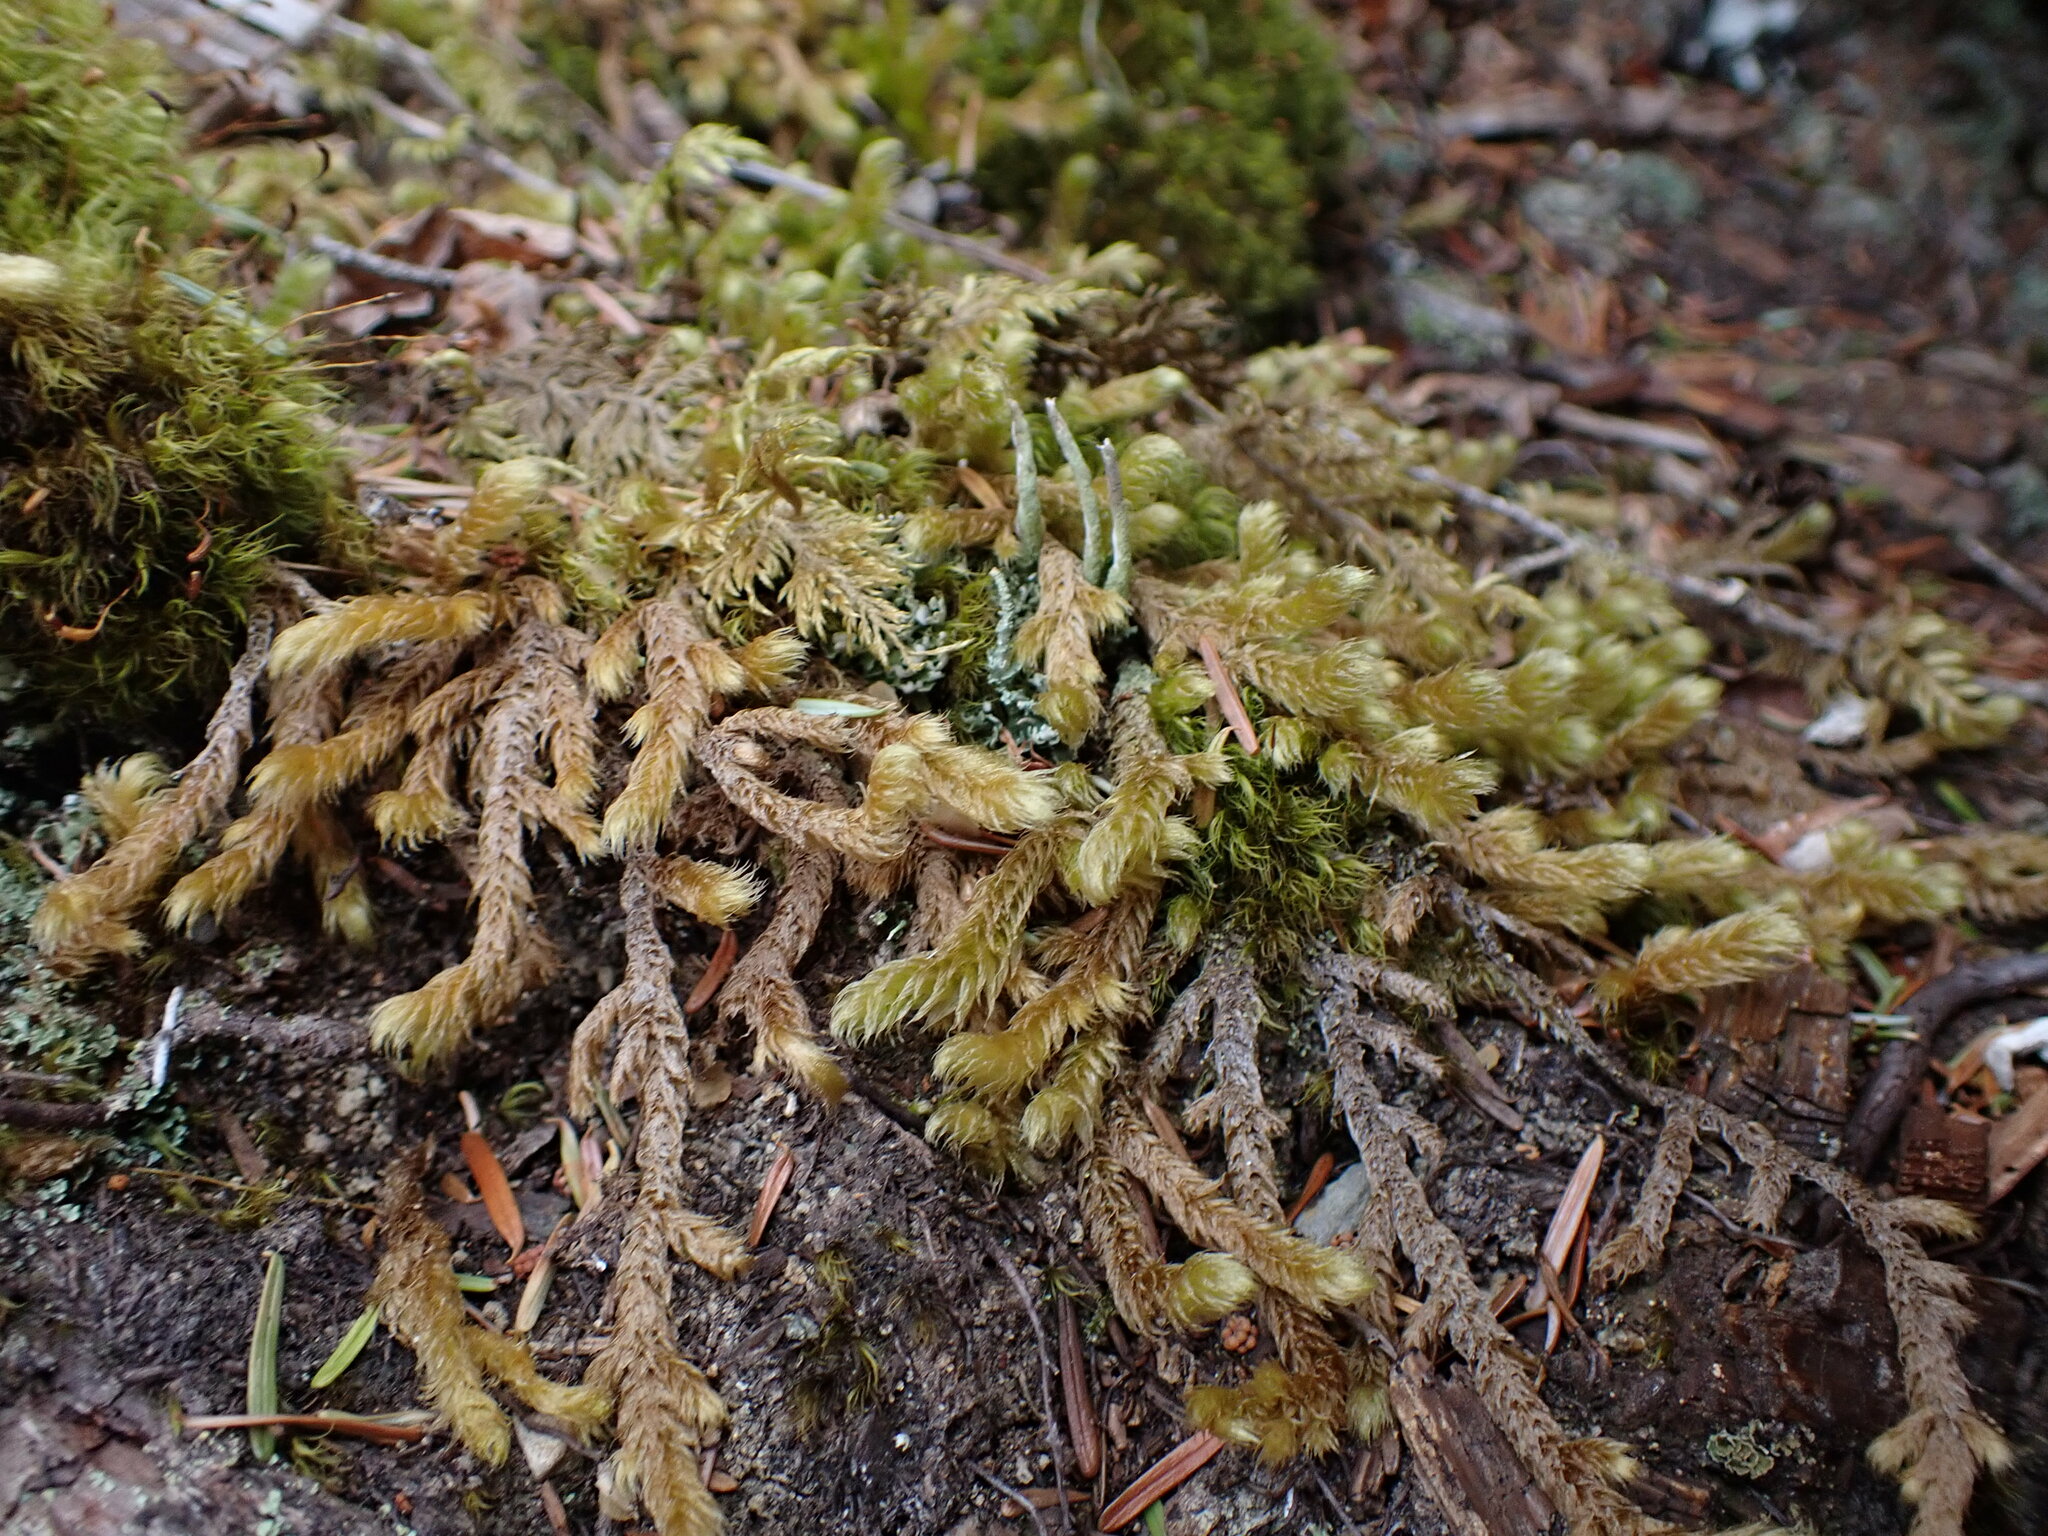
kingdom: Plantae
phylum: Bryophyta
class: Bryopsida
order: Hypnales
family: Hylocomiaceae
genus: Rhytidiopsis
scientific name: Rhytidiopsis robusta
